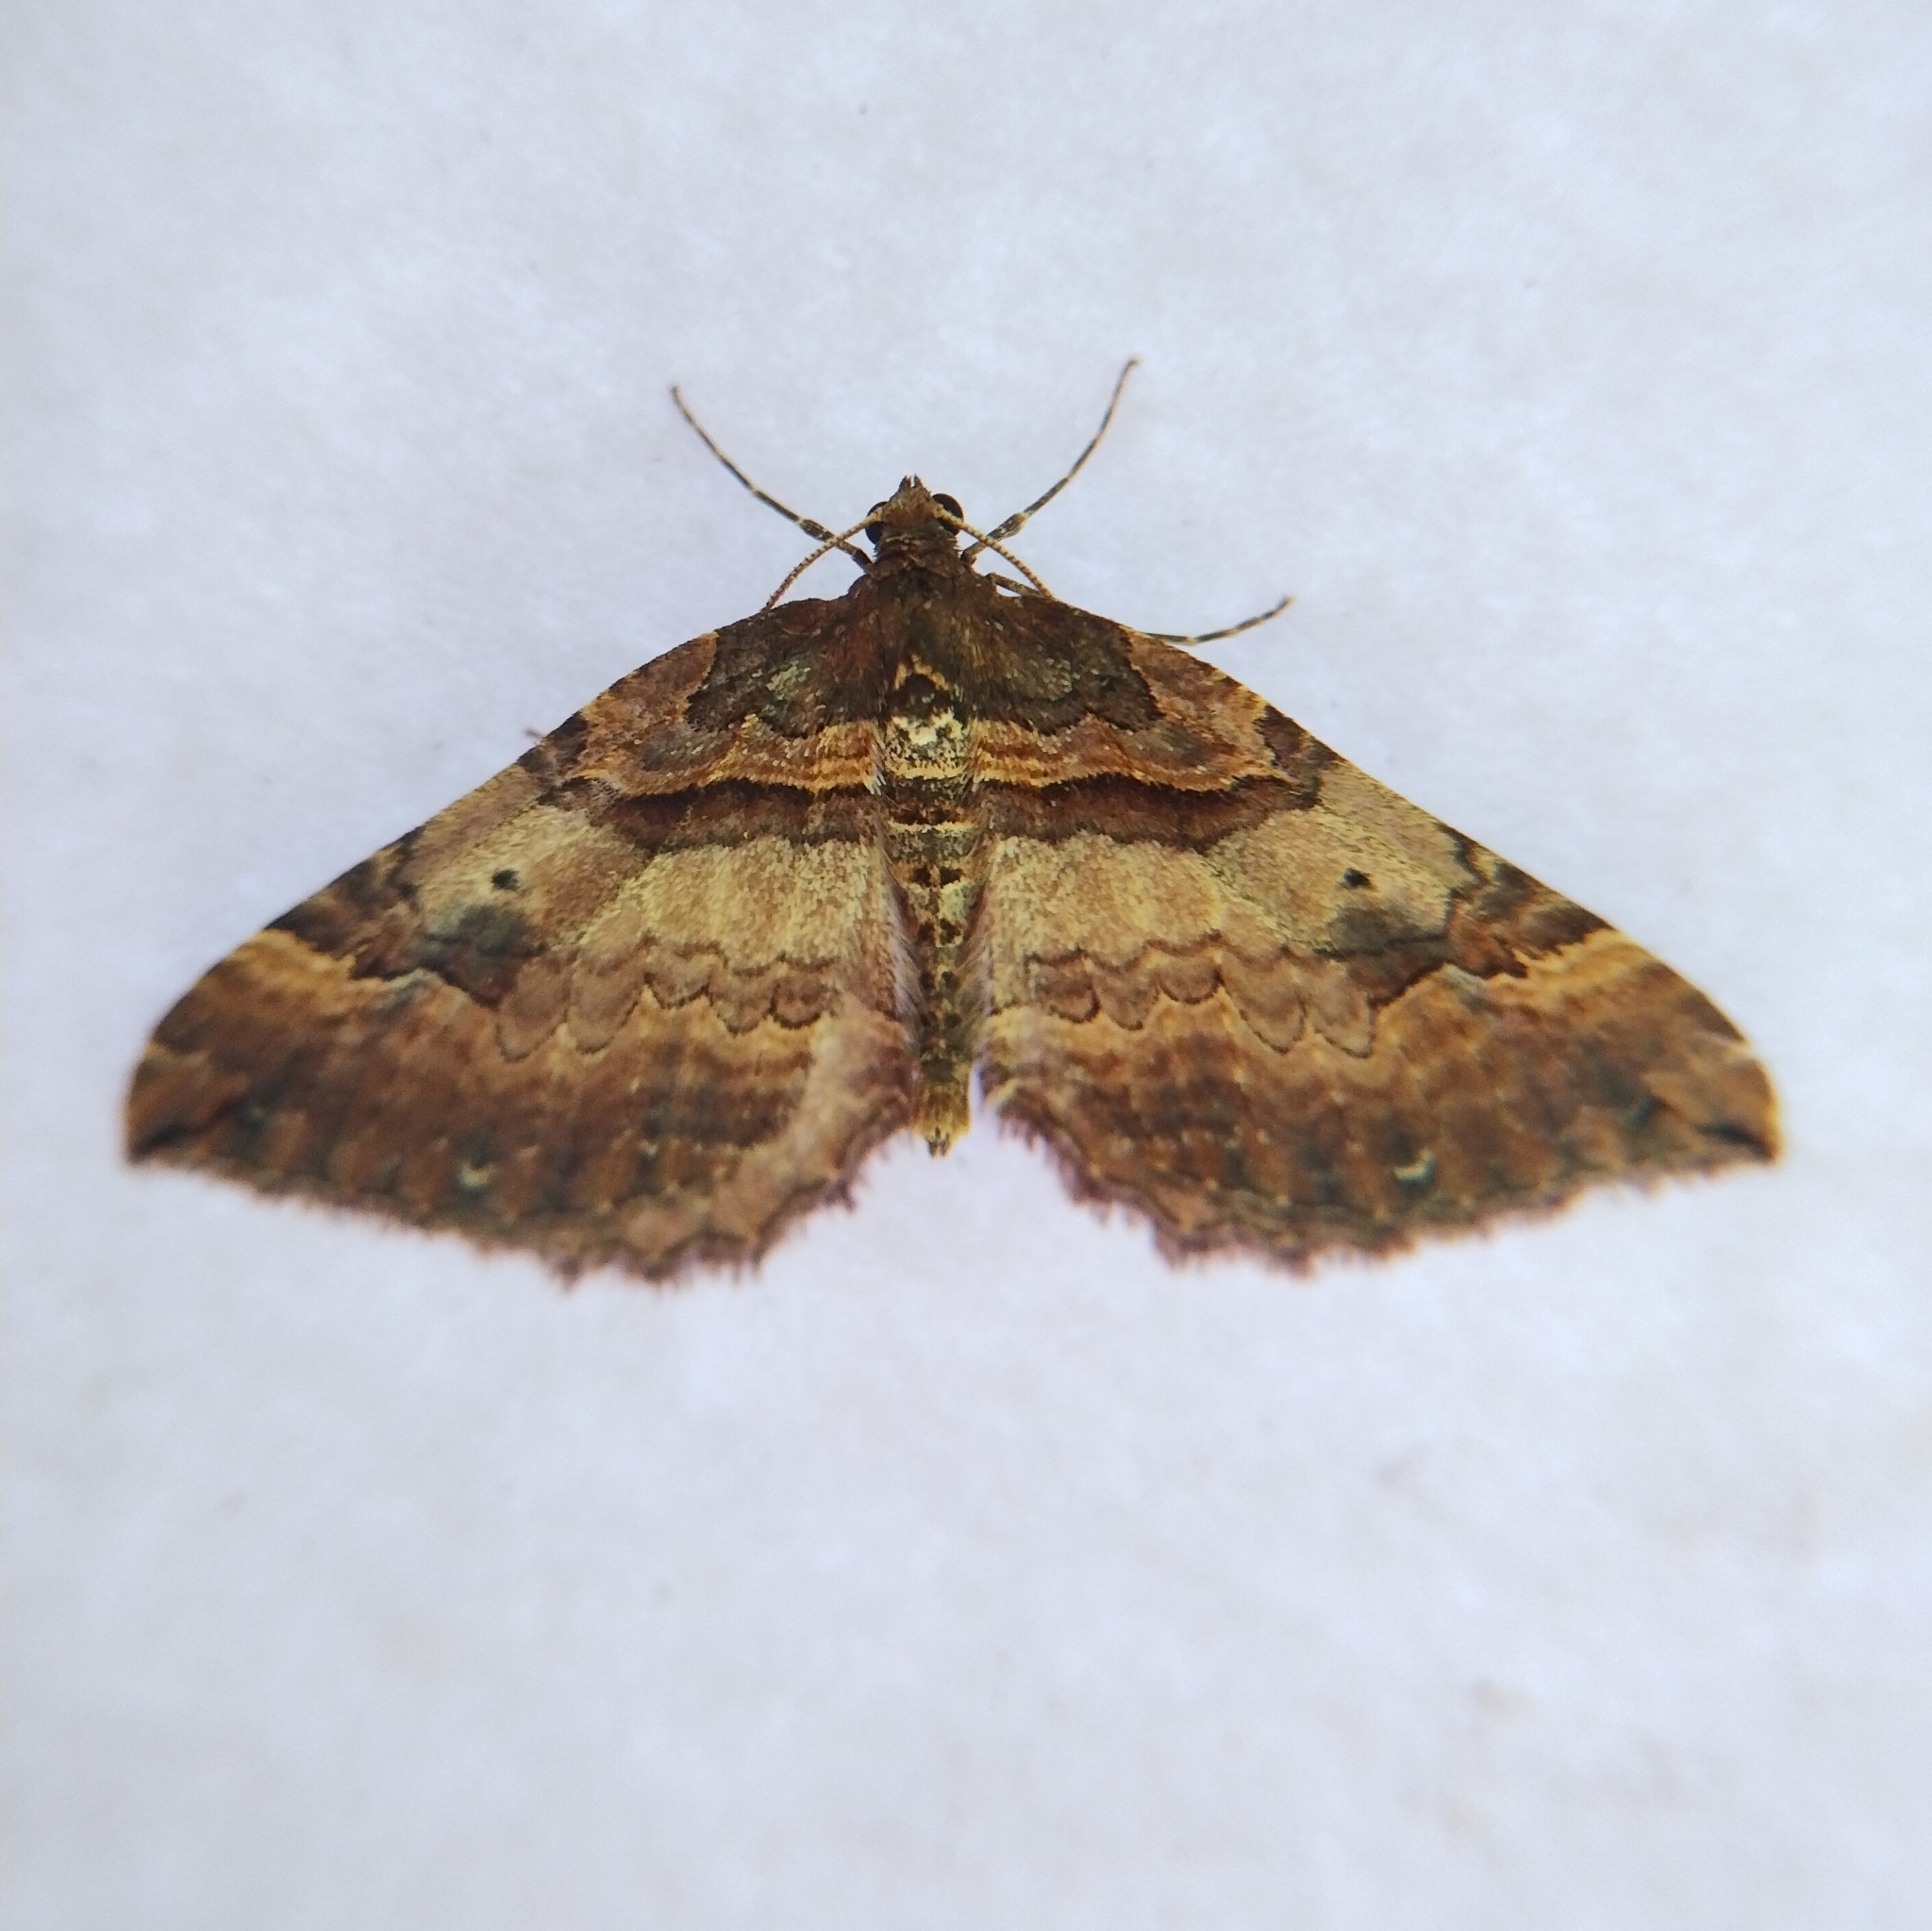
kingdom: Animalia
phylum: Arthropoda
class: Insecta
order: Lepidoptera
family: Geometridae
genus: Anticlea
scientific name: Anticlea badiata
